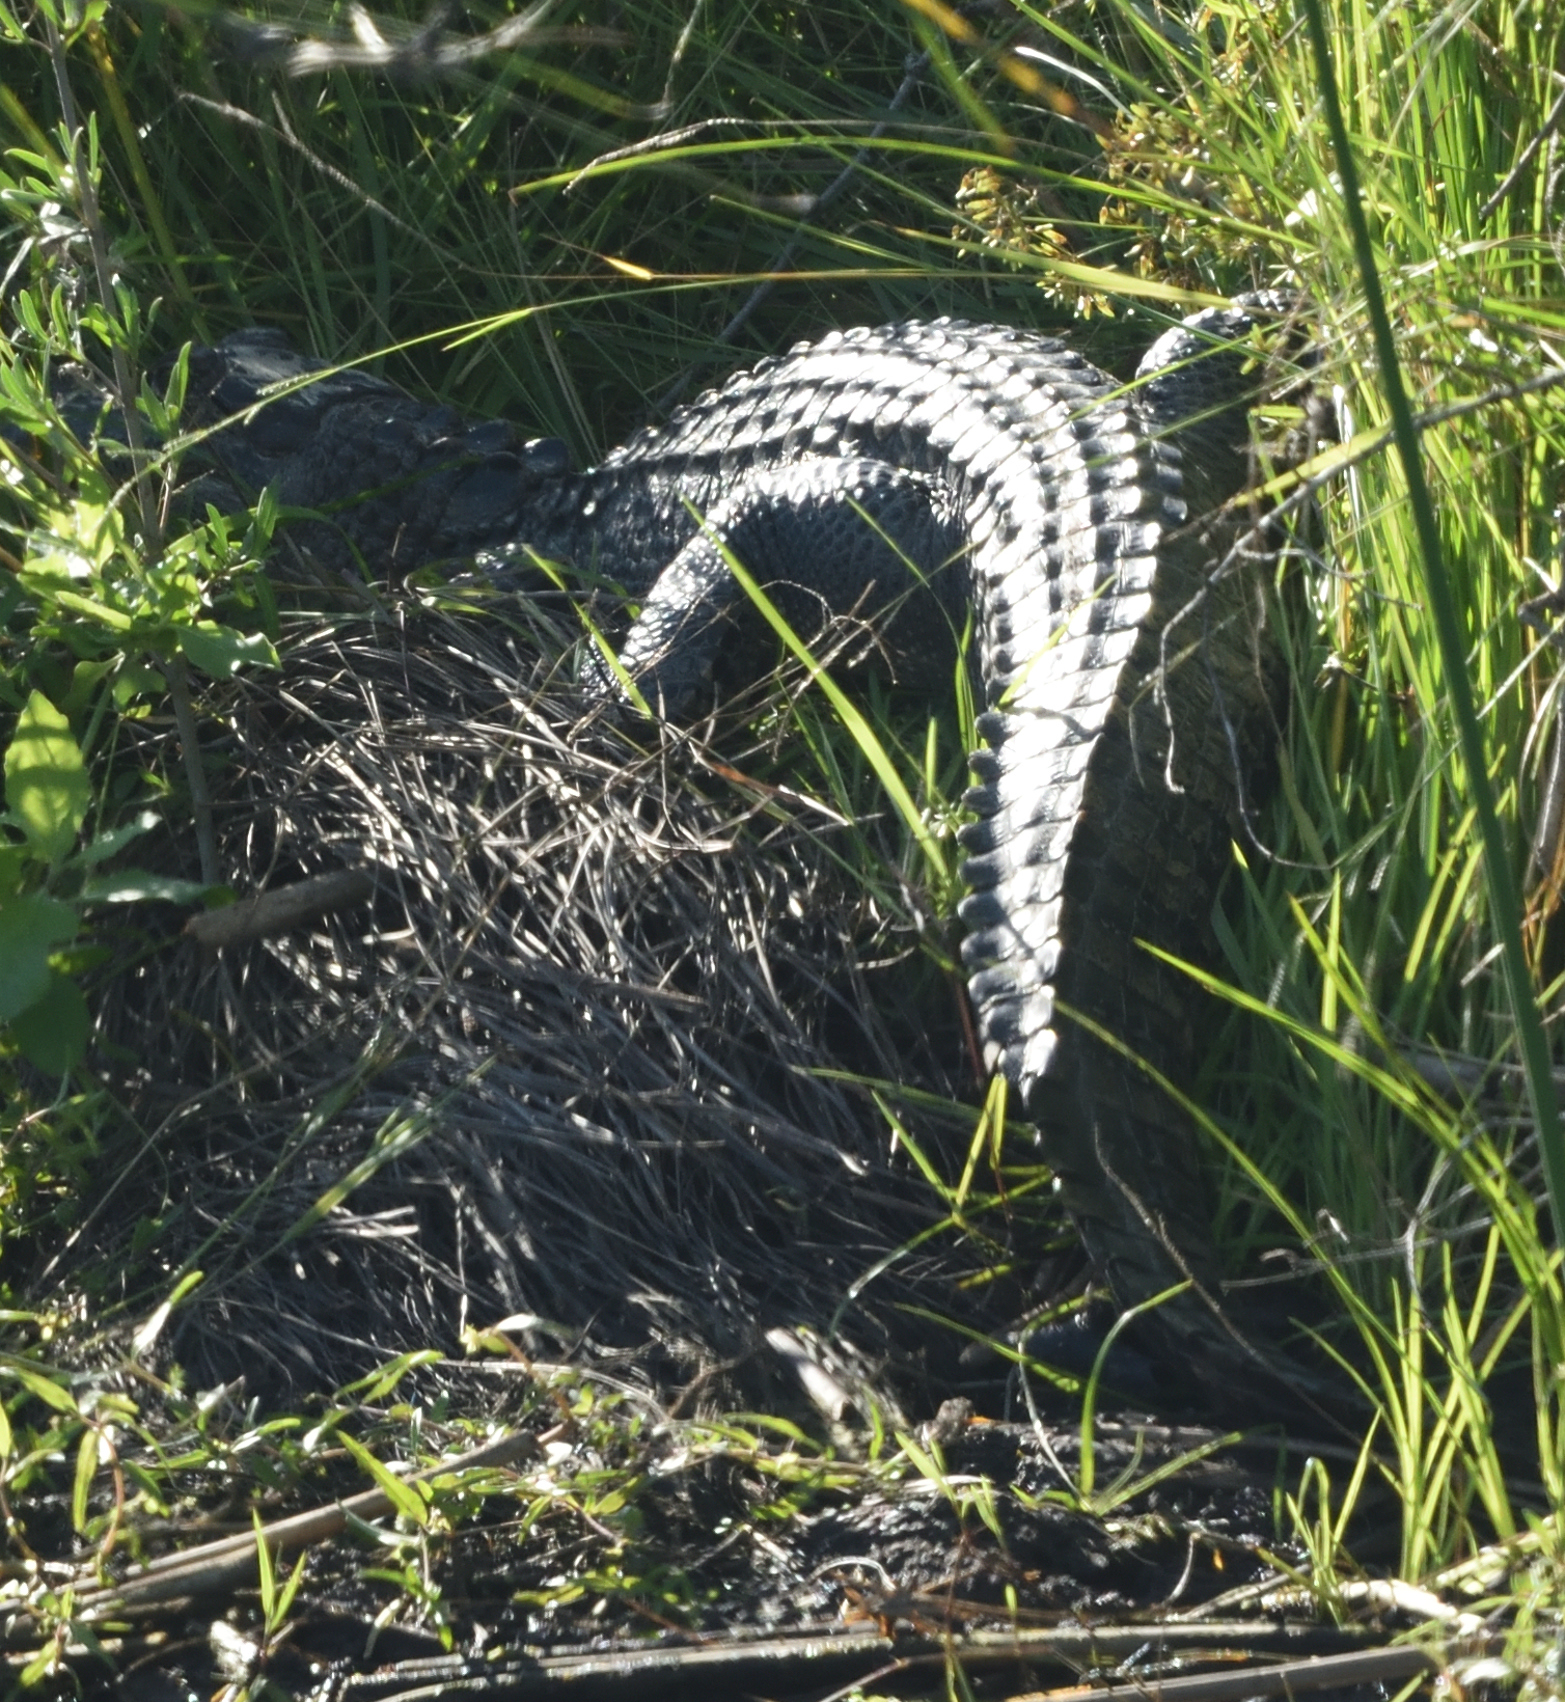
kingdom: Animalia
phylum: Chordata
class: Crocodylia
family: Alligatoridae
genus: Alligator
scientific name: Alligator mississippiensis
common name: American alligator
